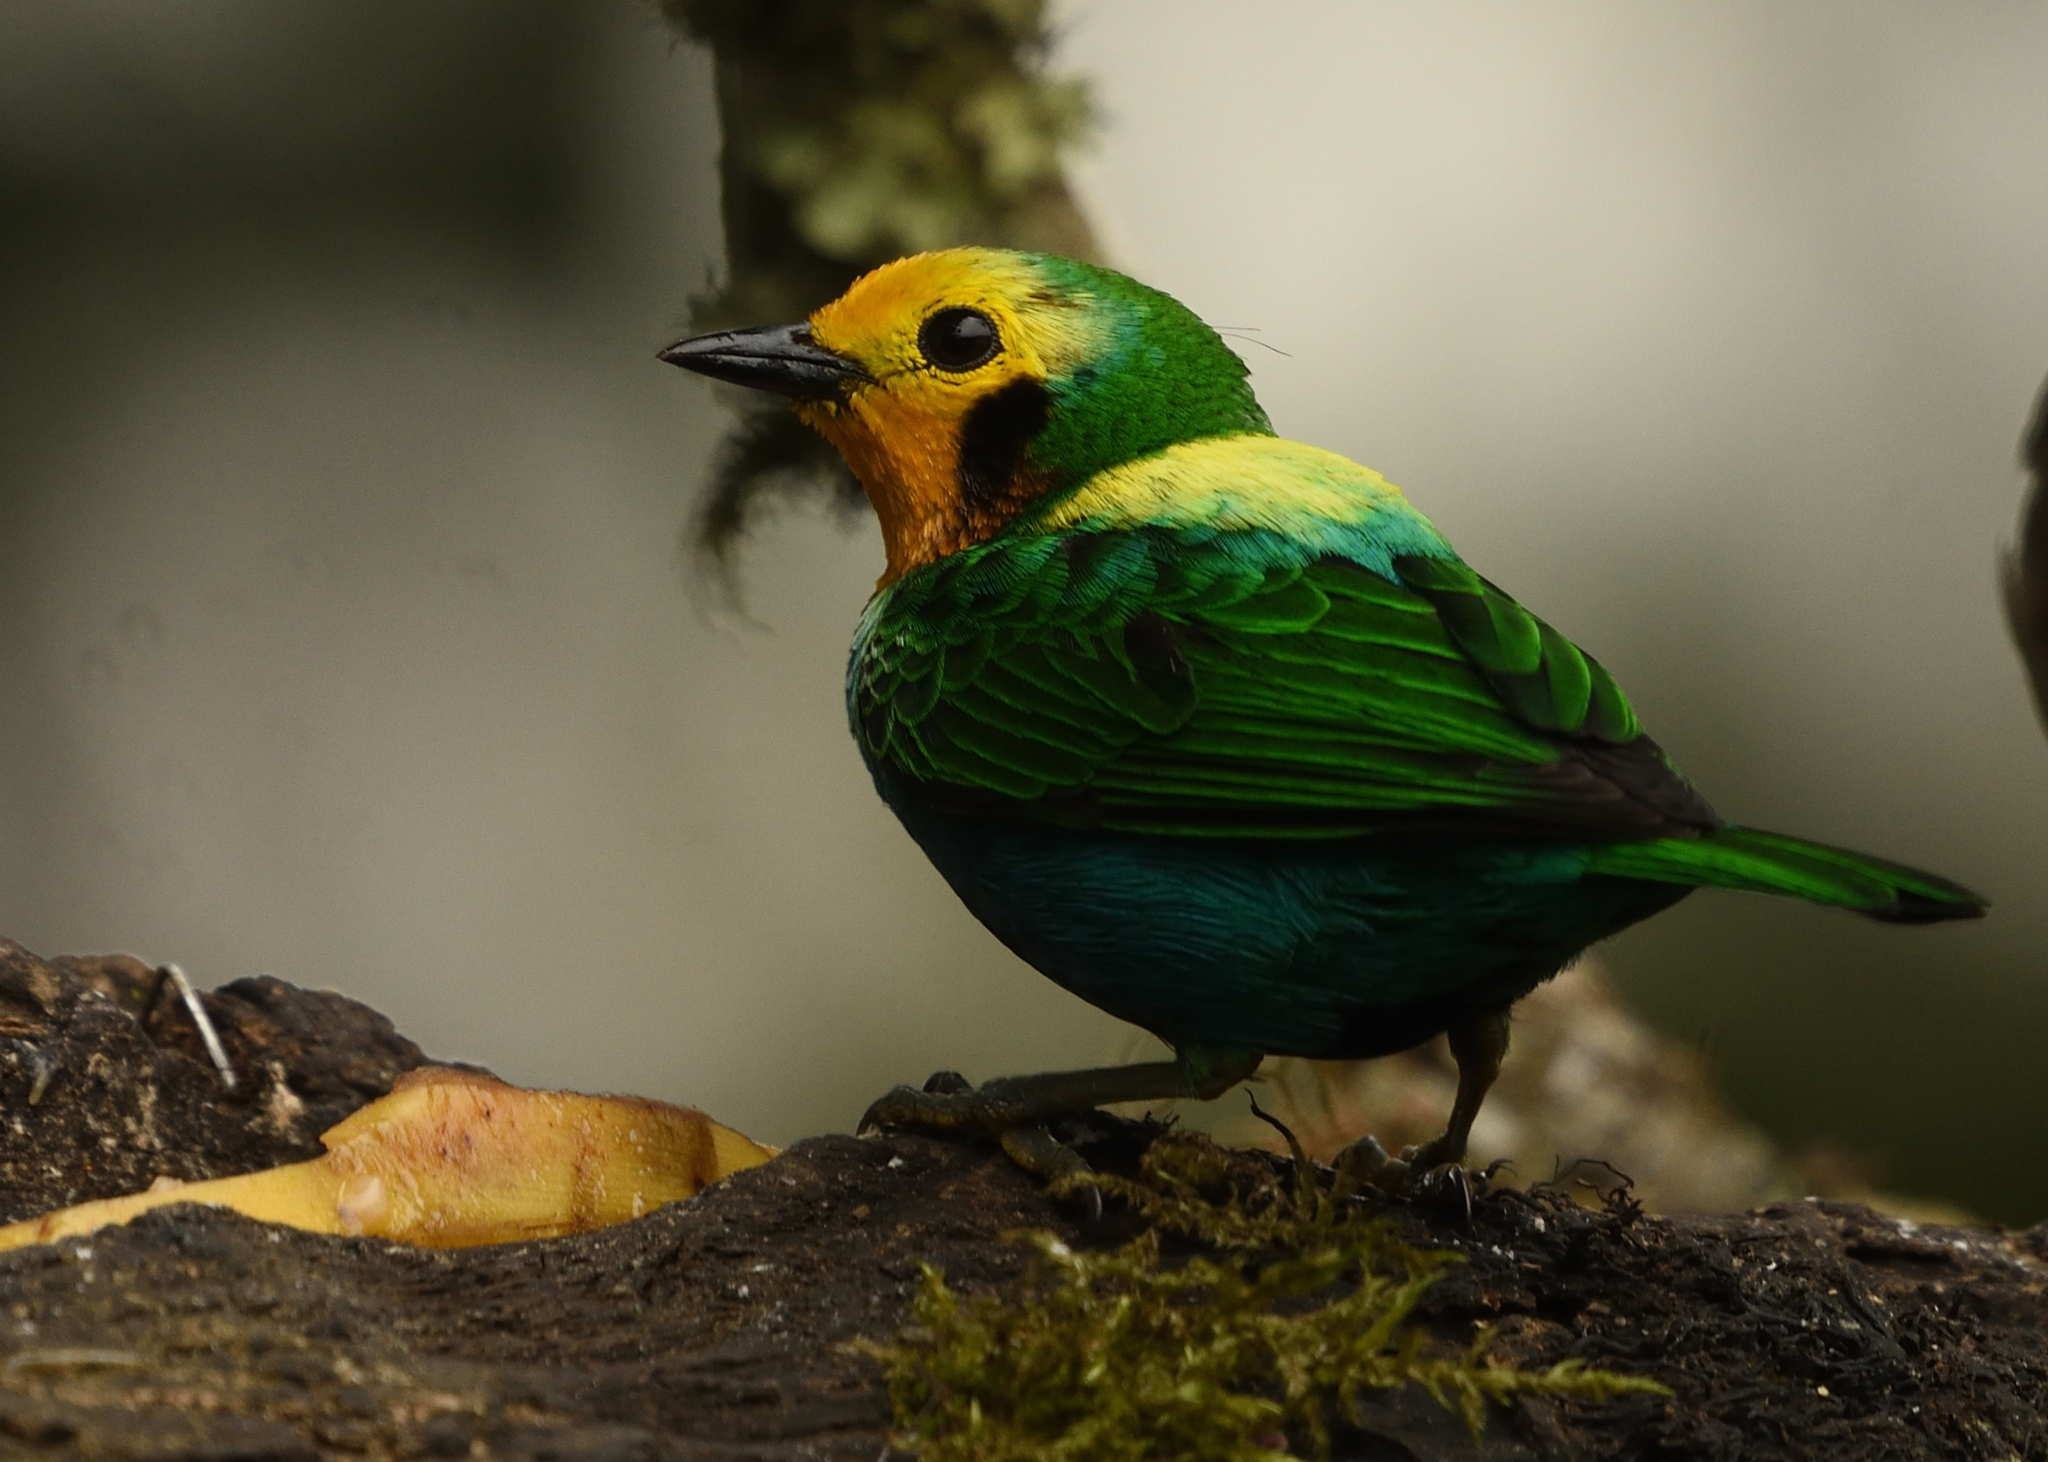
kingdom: Animalia
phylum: Chordata
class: Aves
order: Passeriformes
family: Thraupidae
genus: Chlorochrysa
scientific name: Chlorochrysa nitidissima
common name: Multicolored tanager
